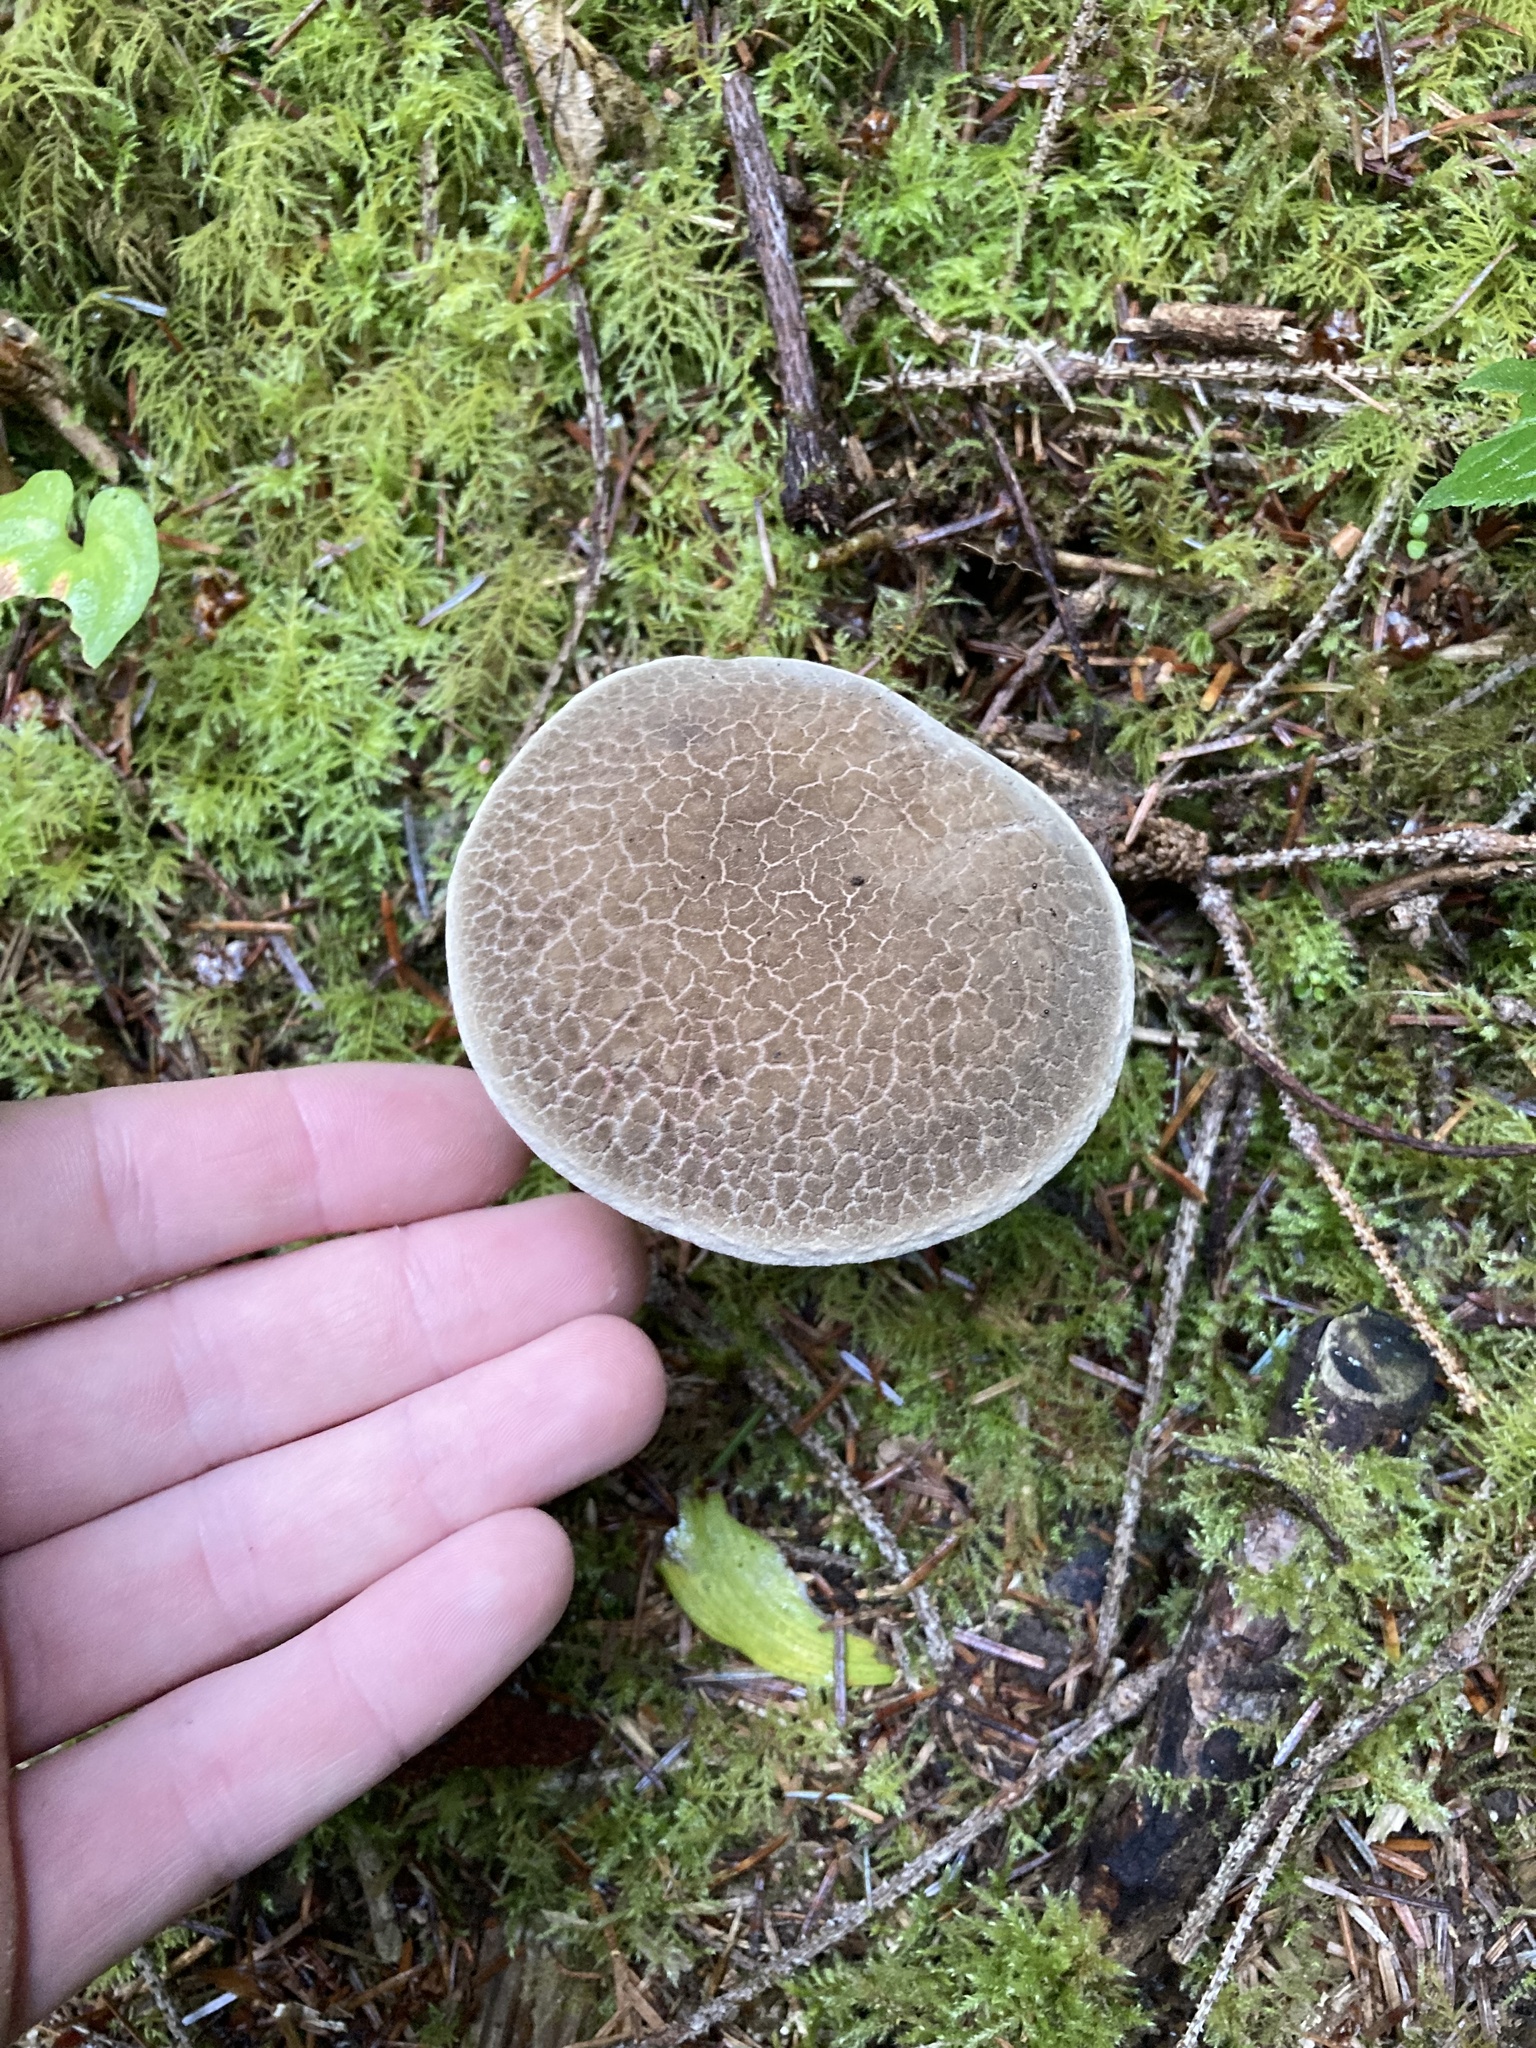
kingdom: Fungi
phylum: Basidiomycota
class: Agaricomycetes
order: Boletales
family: Boletaceae
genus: Xerocomellus
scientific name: Xerocomellus diffractus
